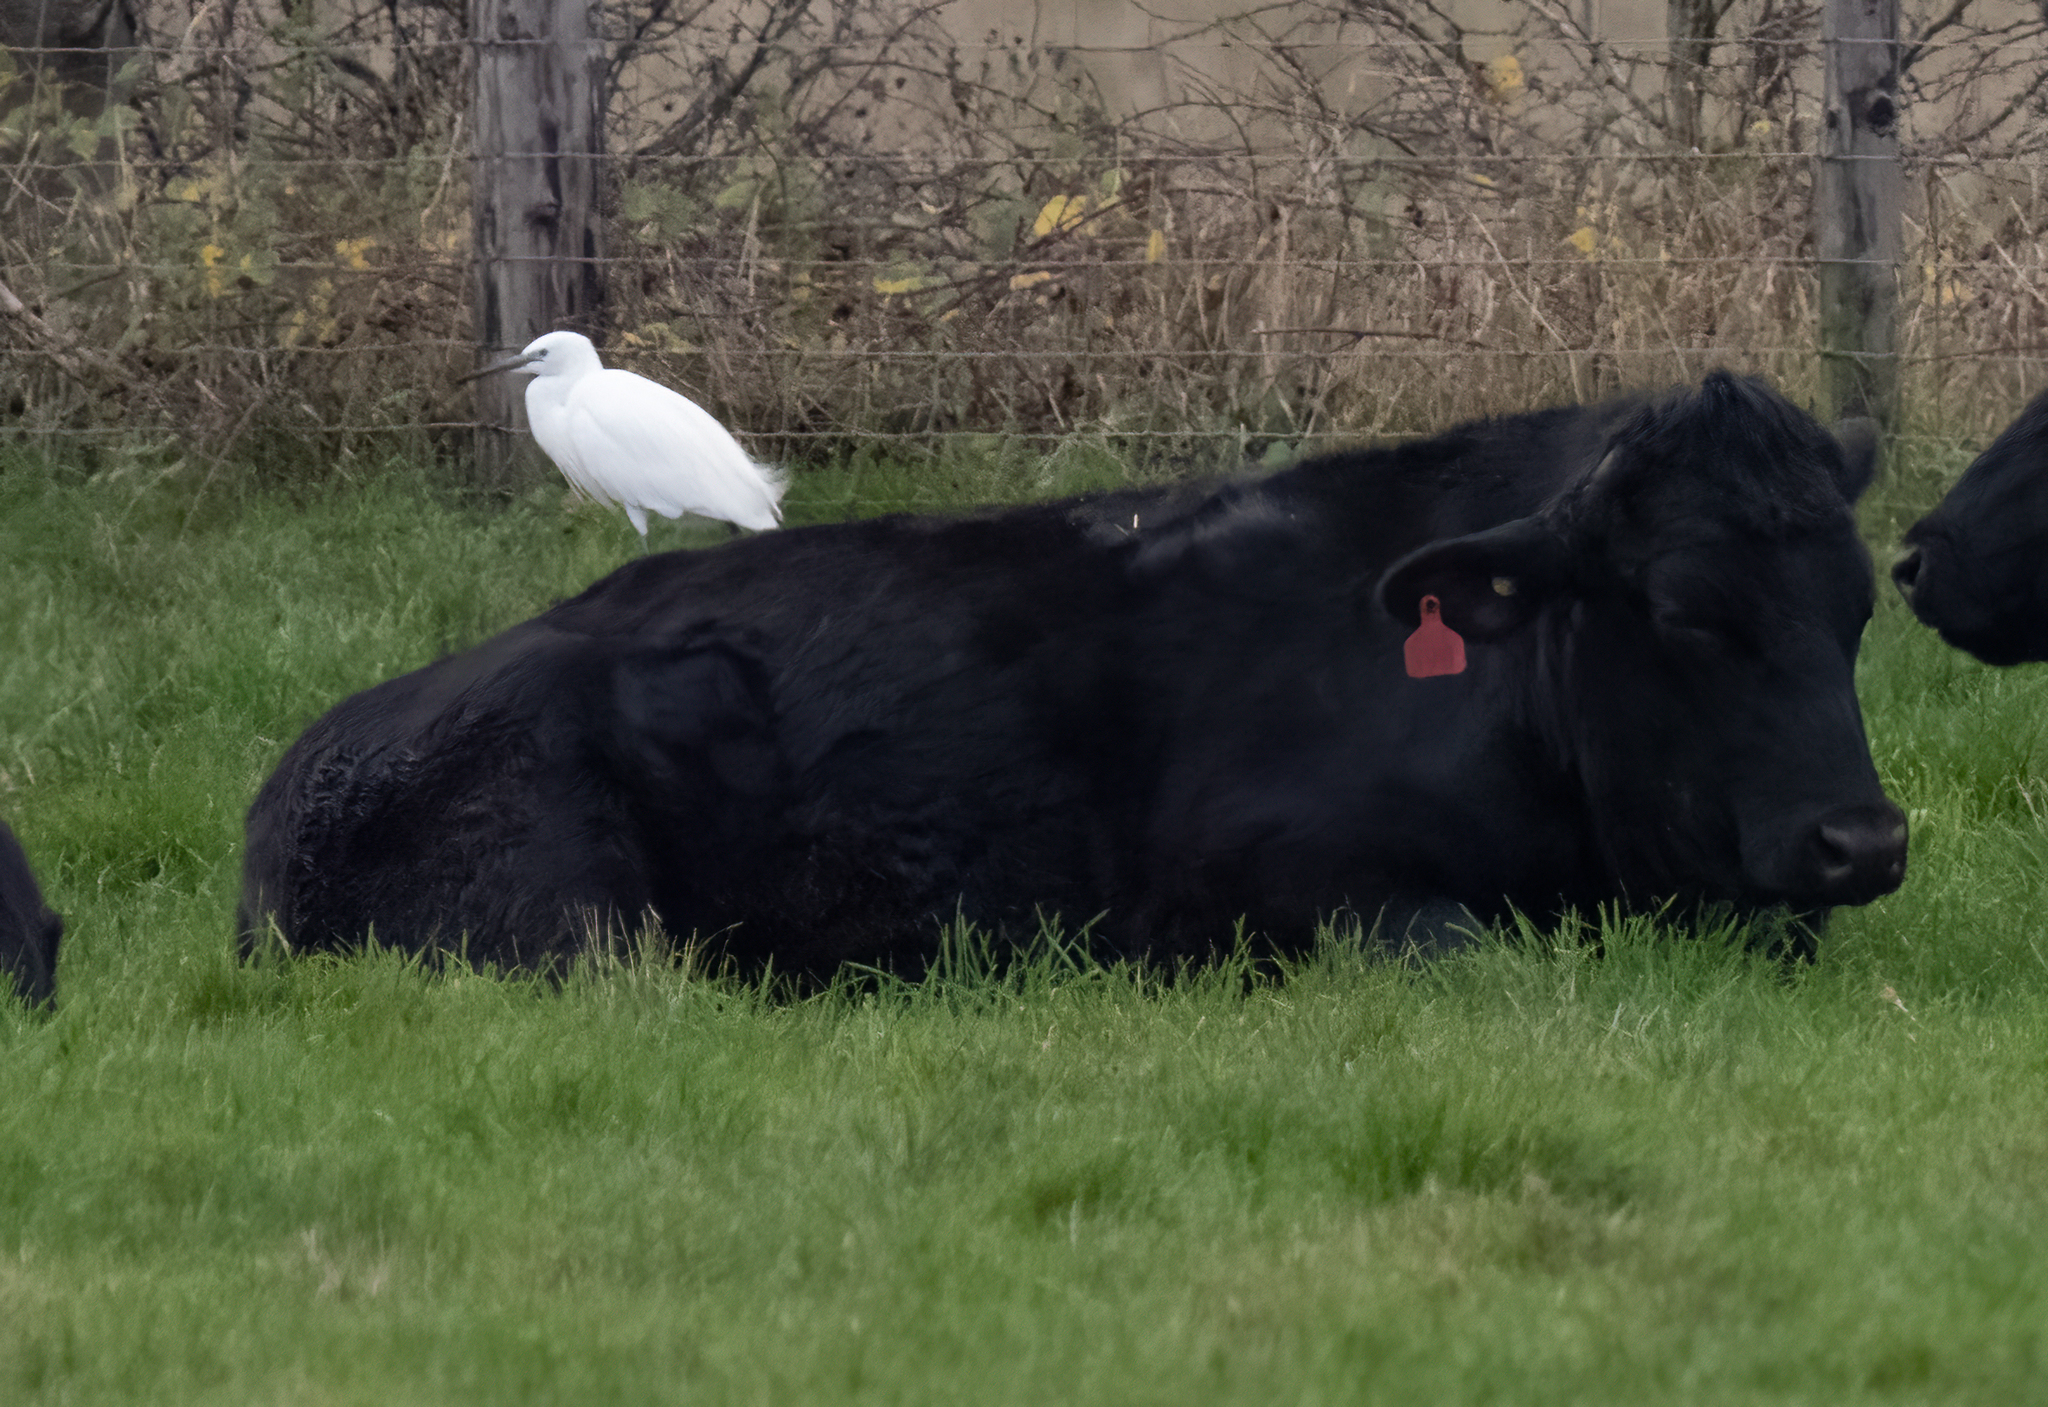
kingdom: Animalia
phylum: Chordata
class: Aves
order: Pelecaniformes
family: Ardeidae
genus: Egretta
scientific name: Egretta garzetta
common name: Little egret
